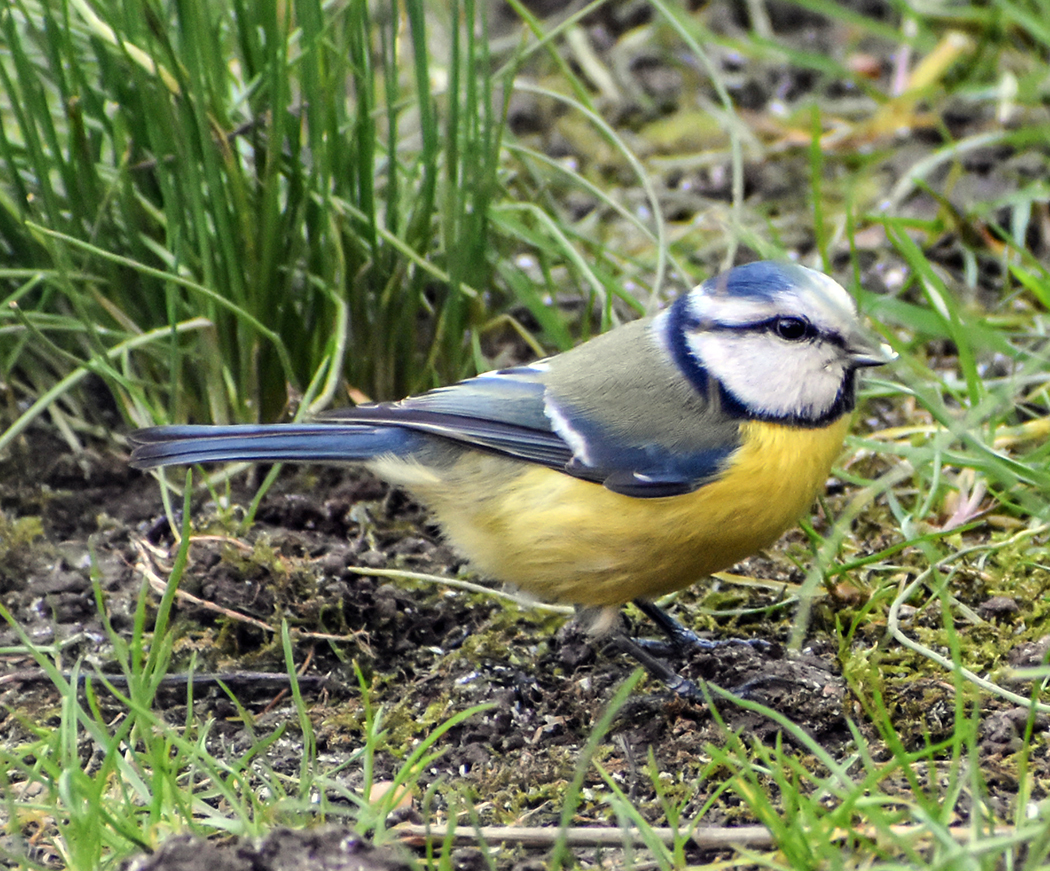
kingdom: Animalia
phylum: Chordata
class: Aves
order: Passeriformes
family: Paridae
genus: Cyanistes
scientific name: Cyanistes caeruleus
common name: Eurasian blue tit
